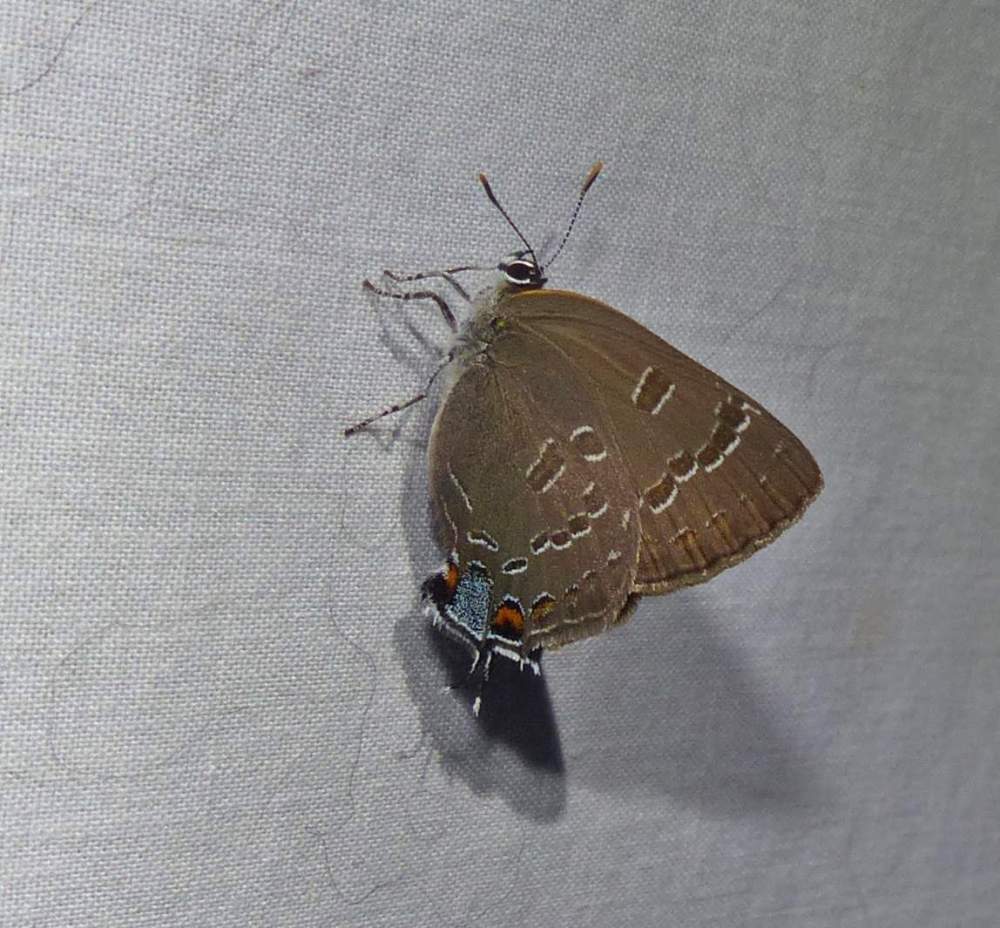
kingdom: Animalia
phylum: Arthropoda
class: Insecta
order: Lepidoptera
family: Lycaenidae
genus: Strymon
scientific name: Strymon caryaevorus
